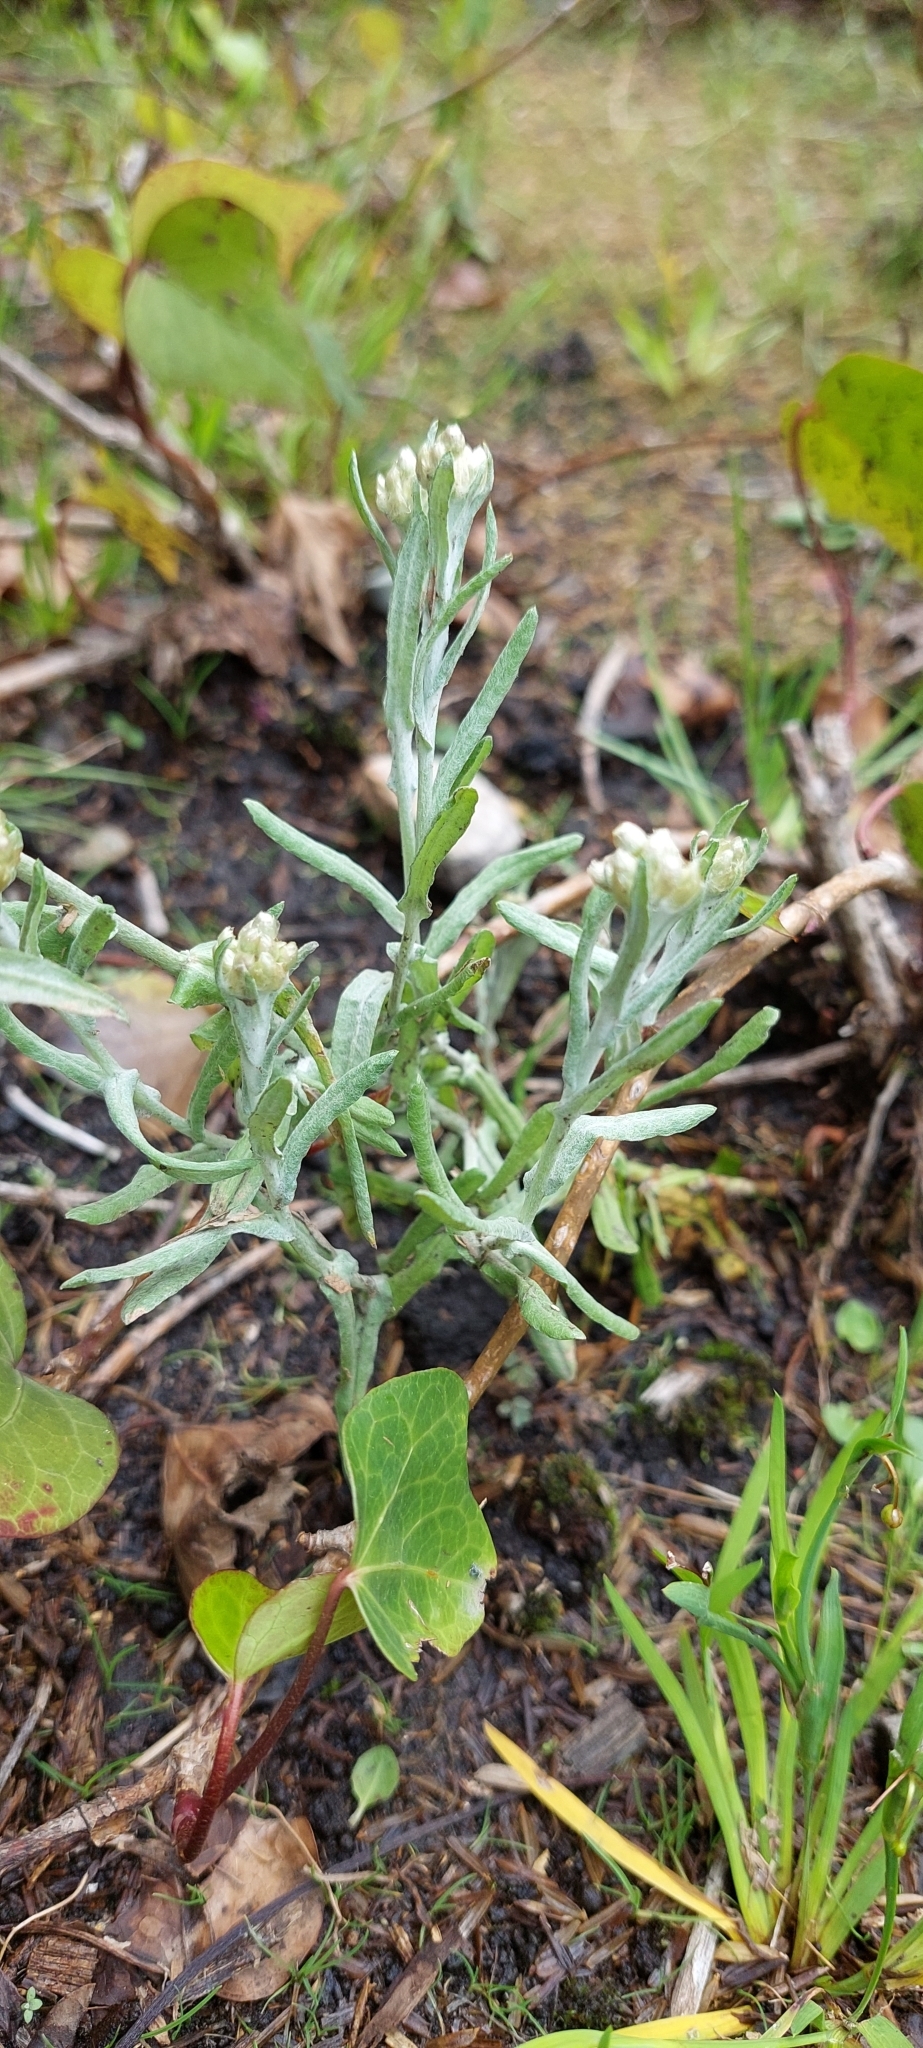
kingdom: Plantae
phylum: Tracheophyta
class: Magnoliopsida
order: Asterales
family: Asteraceae
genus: Helichrysum
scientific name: Helichrysum luteoalbum
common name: Daisy
